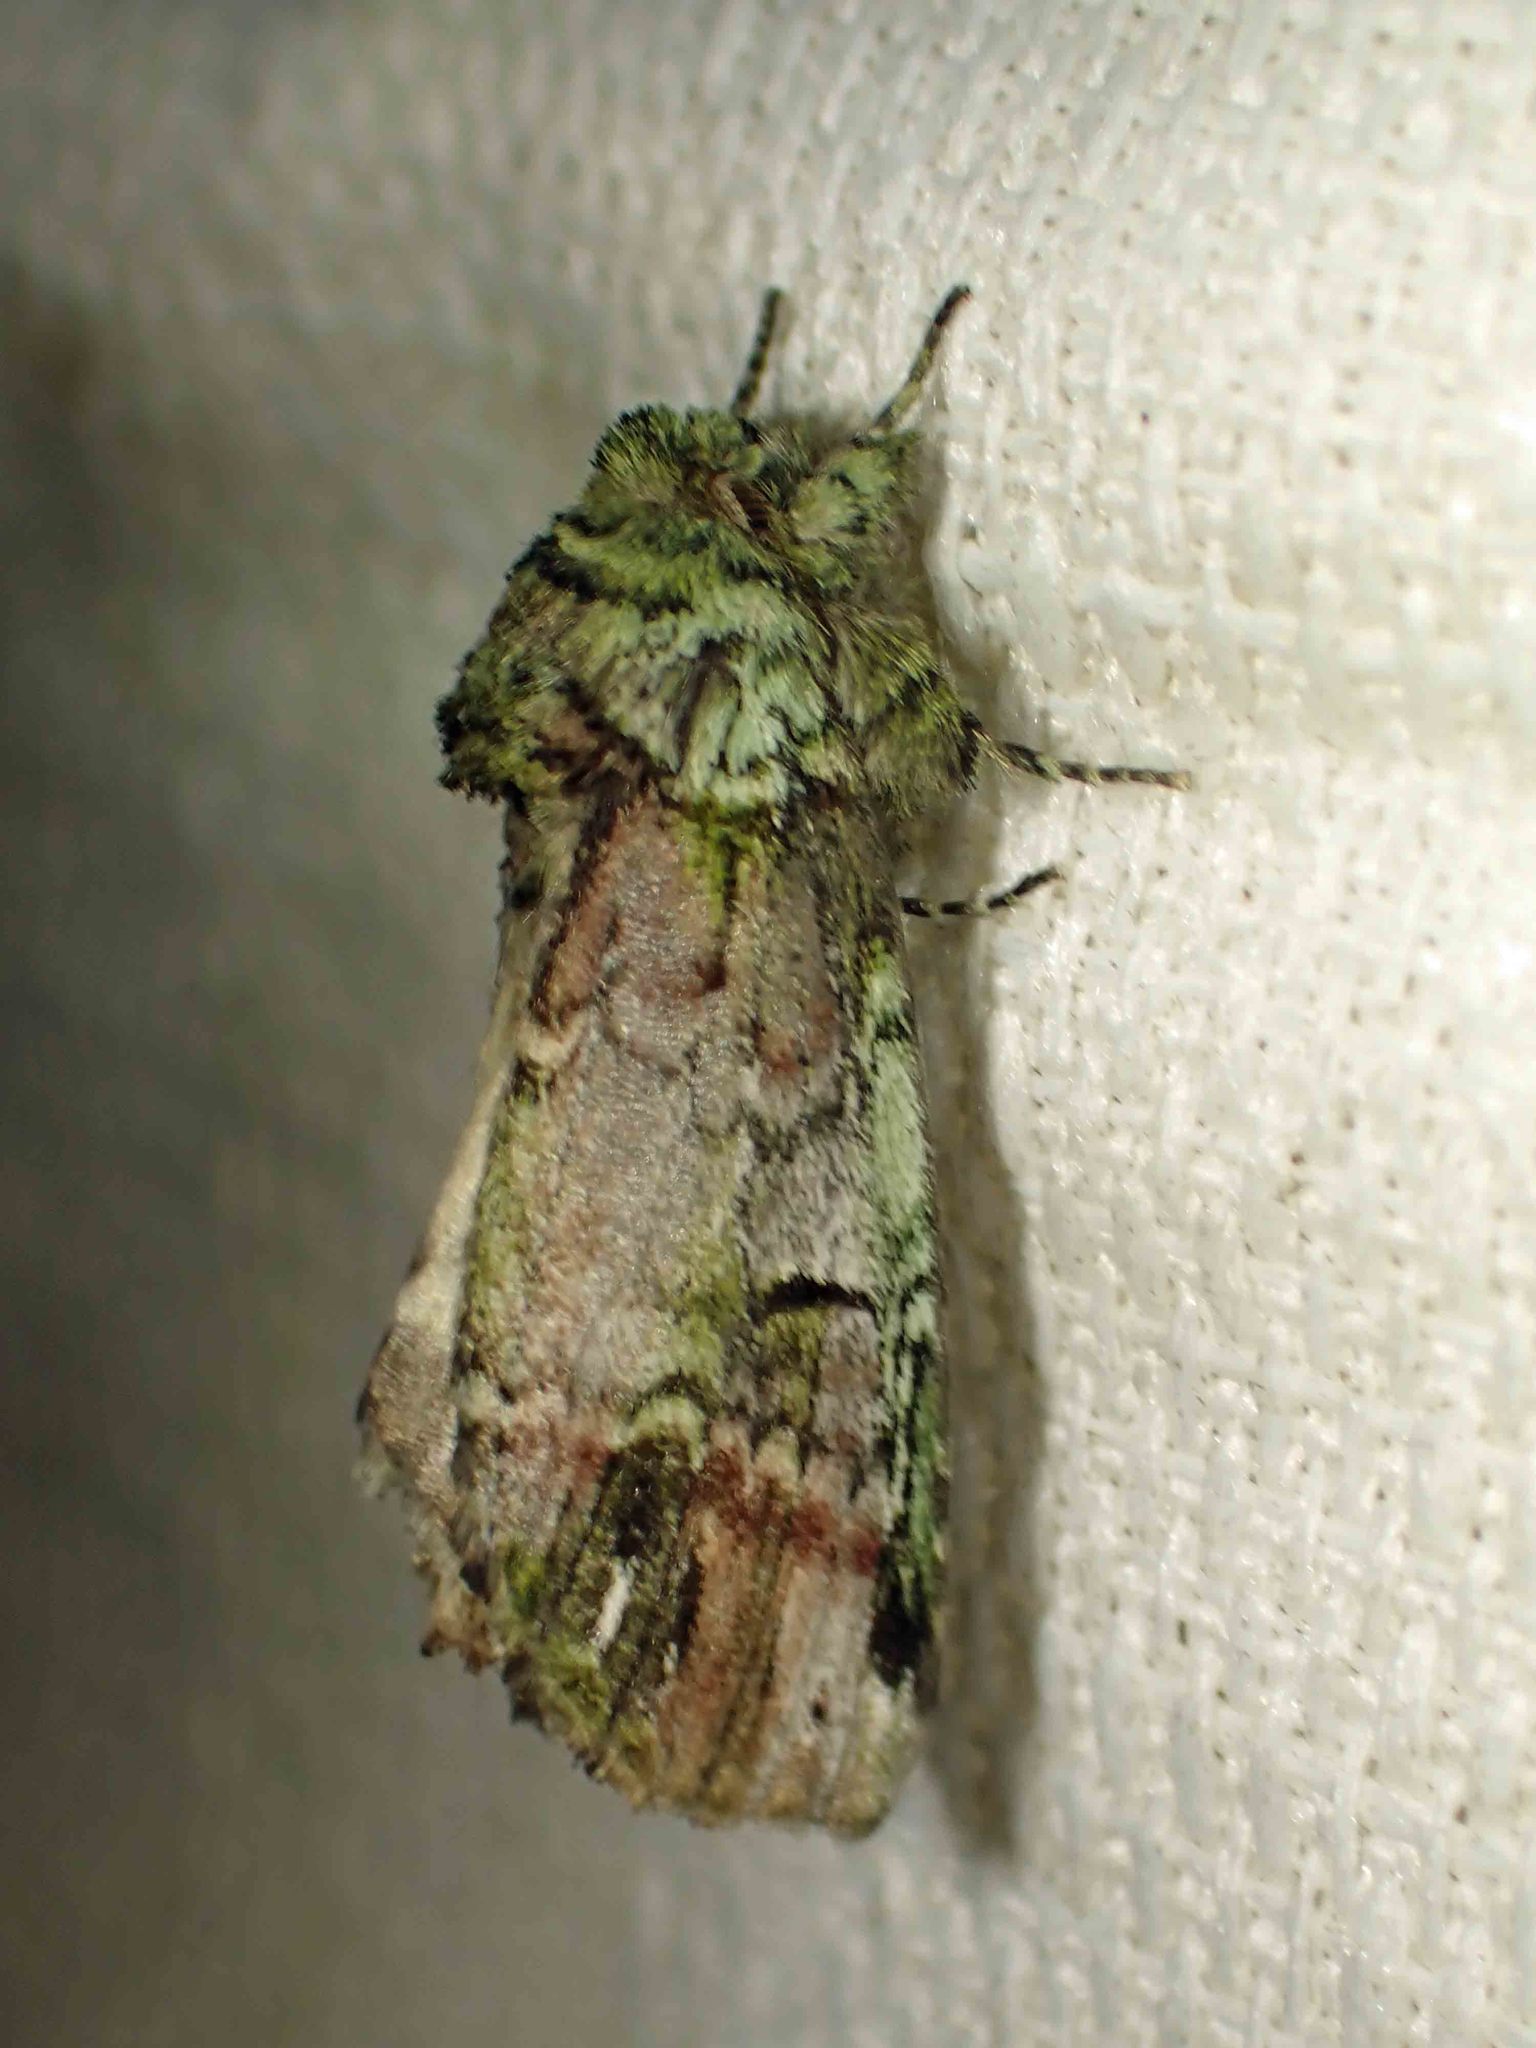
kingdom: Animalia
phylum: Arthropoda
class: Insecta
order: Lepidoptera
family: Notodontidae
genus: Schizura
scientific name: Schizura
